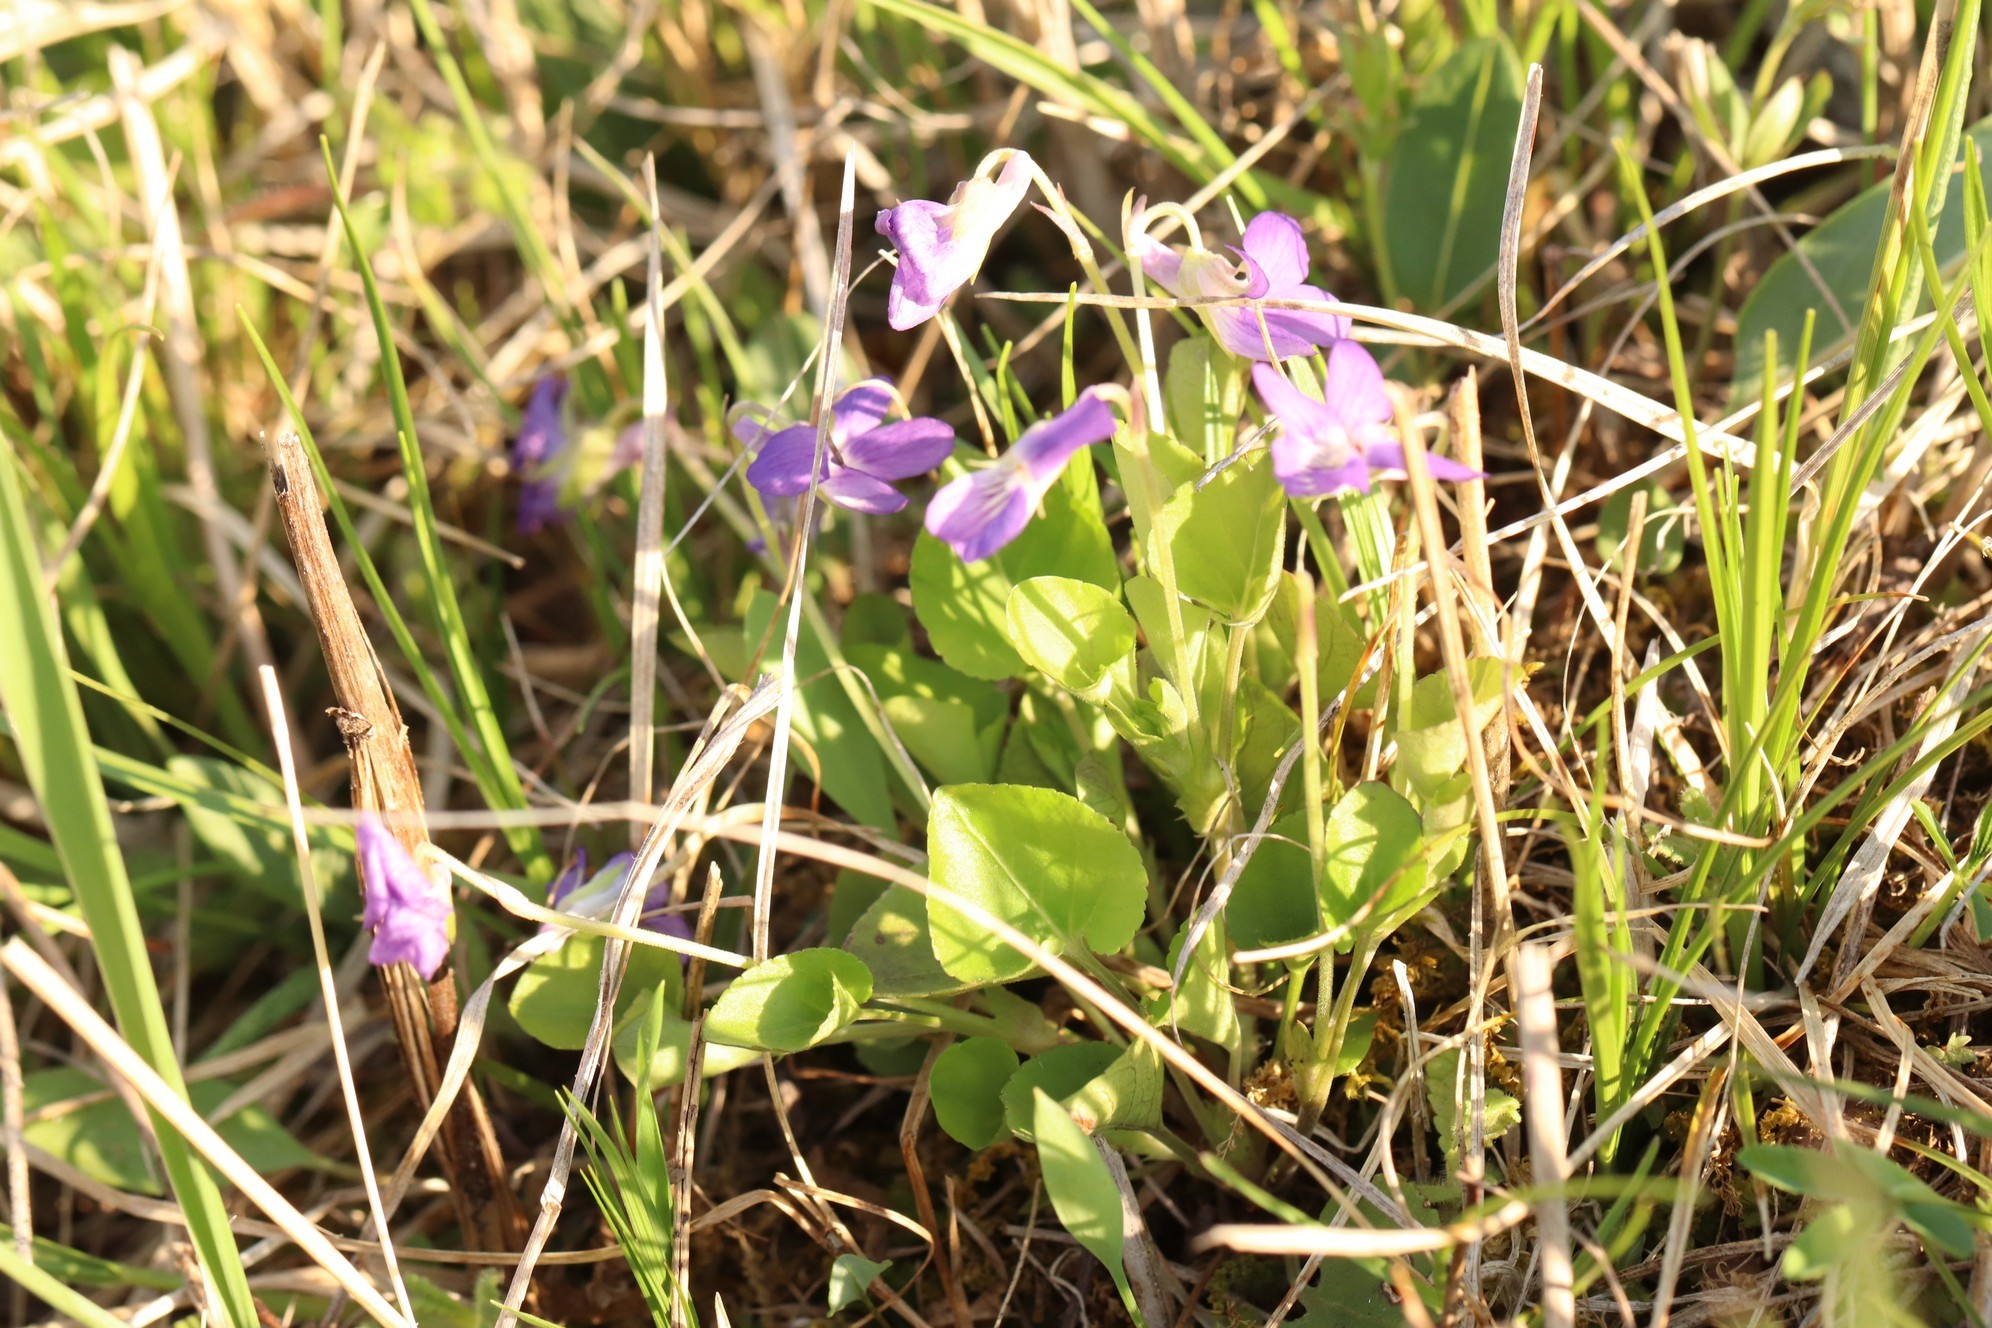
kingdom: Plantae
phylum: Tracheophyta
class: Magnoliopsida
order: Malpighiales
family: Violaceae
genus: Viola
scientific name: Viola rupestris
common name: Teesdale violet
